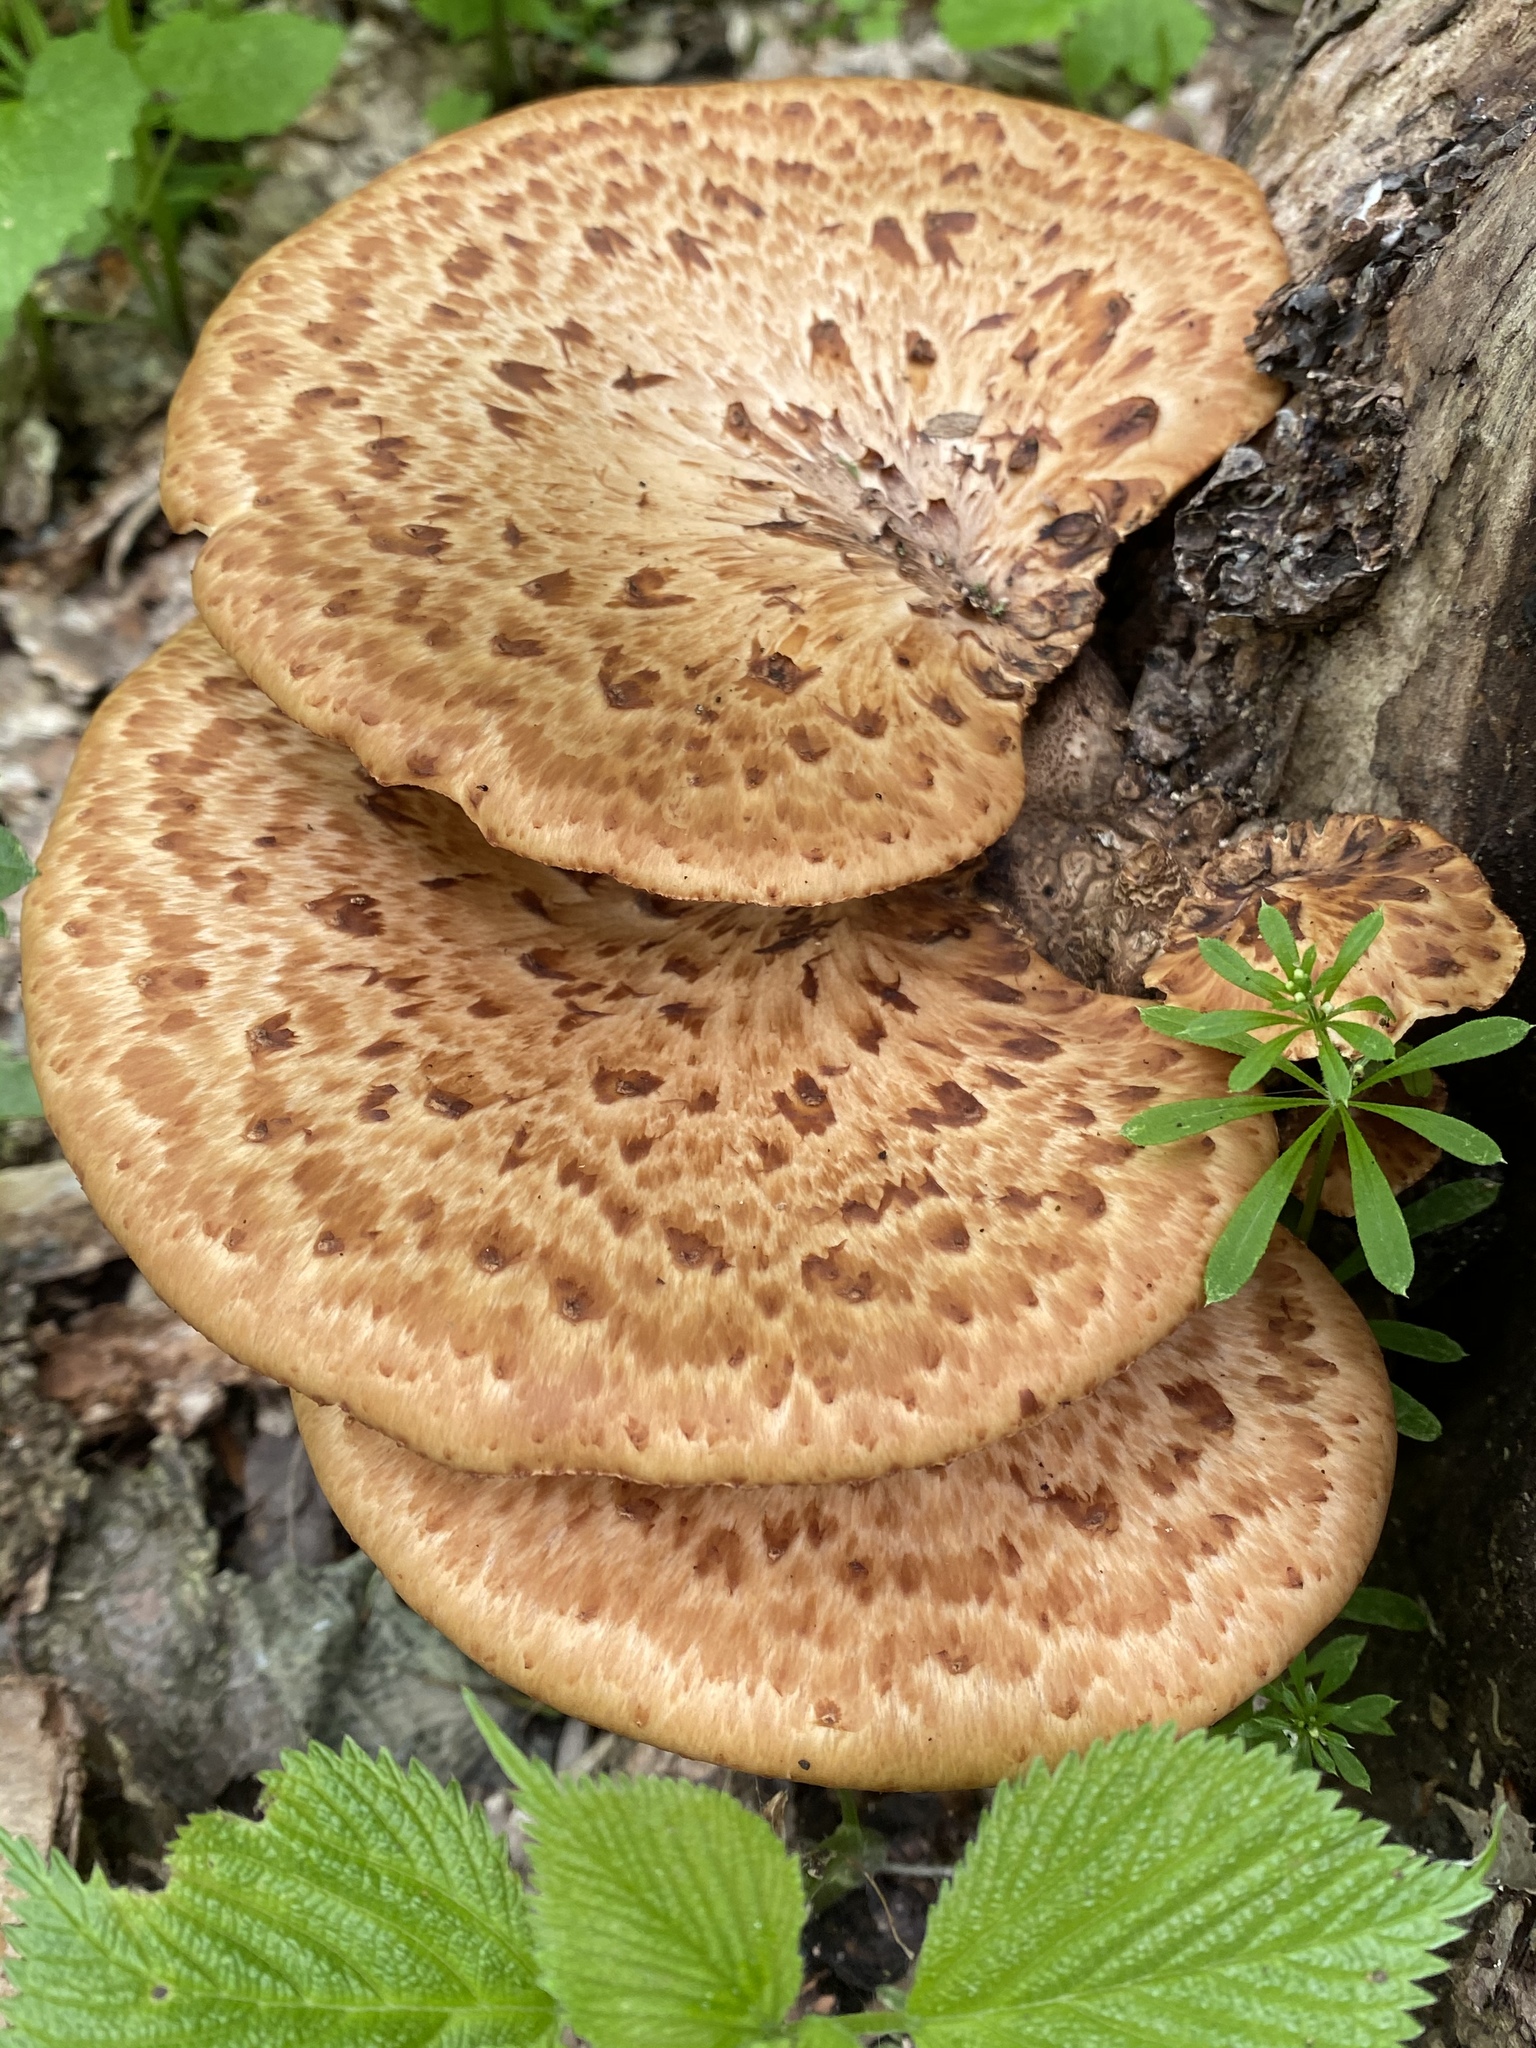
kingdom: Fungi
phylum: Basidiomycota
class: Agaricomycetes
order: Polyporales
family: Polyporaceae
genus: Cerioporus
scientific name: Cerioporus squamosus
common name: Dryad's saddle
